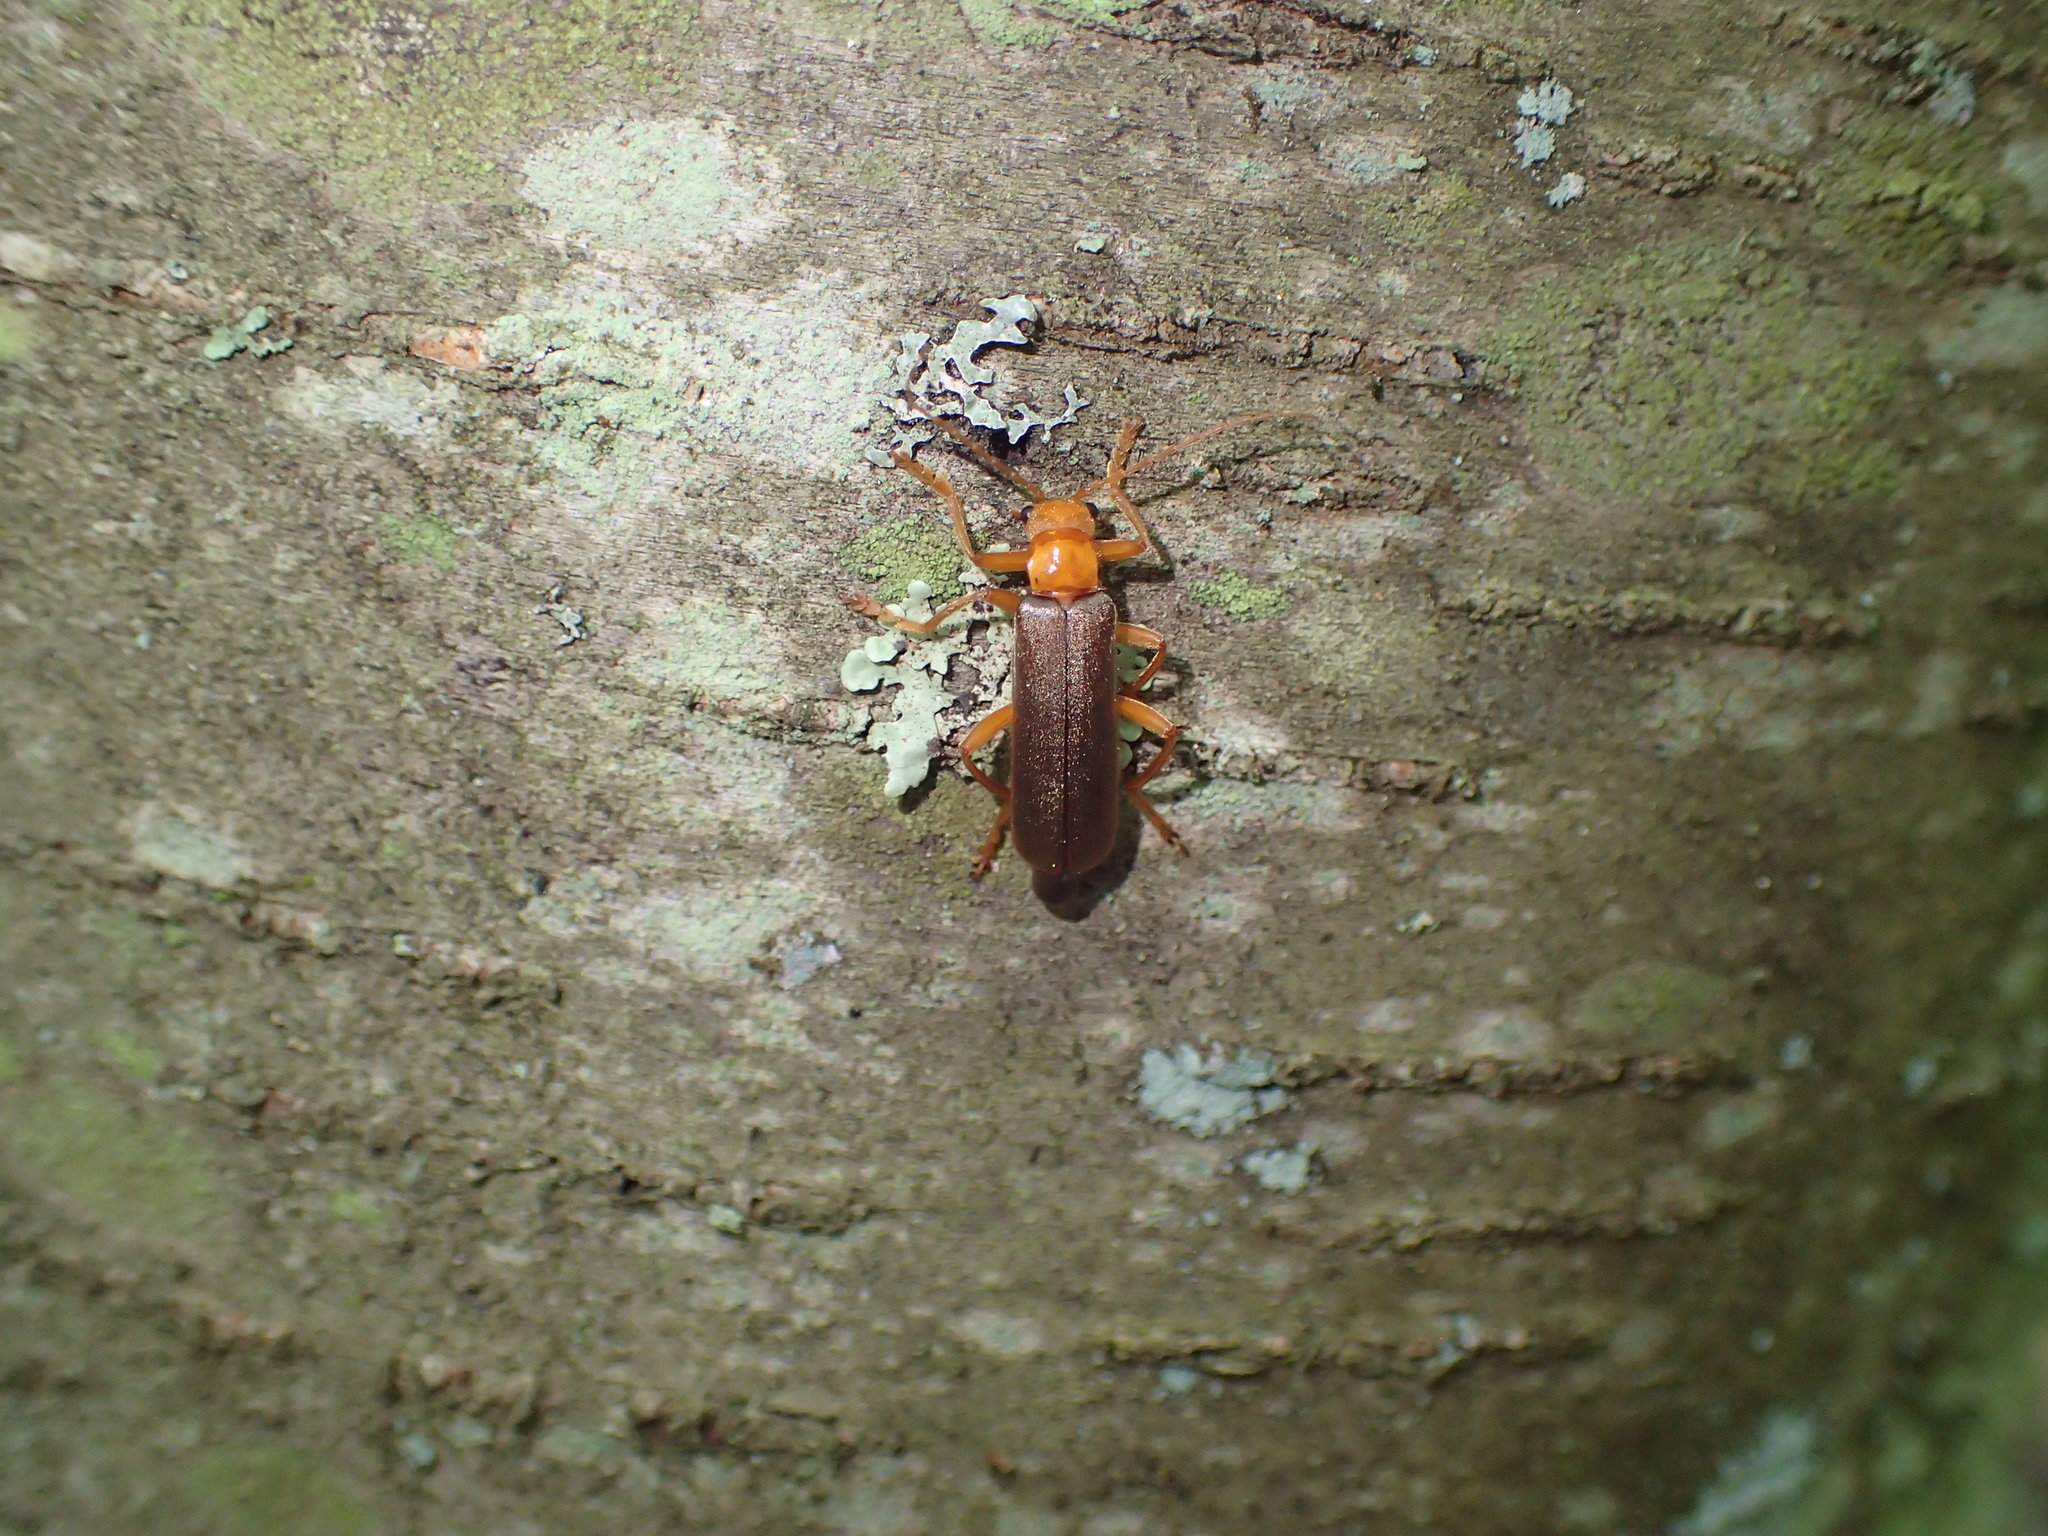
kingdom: Animalia
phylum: Arthropoda
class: Insecta
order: Coleoptera
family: Cantharidae
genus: Pacificanthia
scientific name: Pacificanthia rotundicollis
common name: Brown leatherwing beetle
